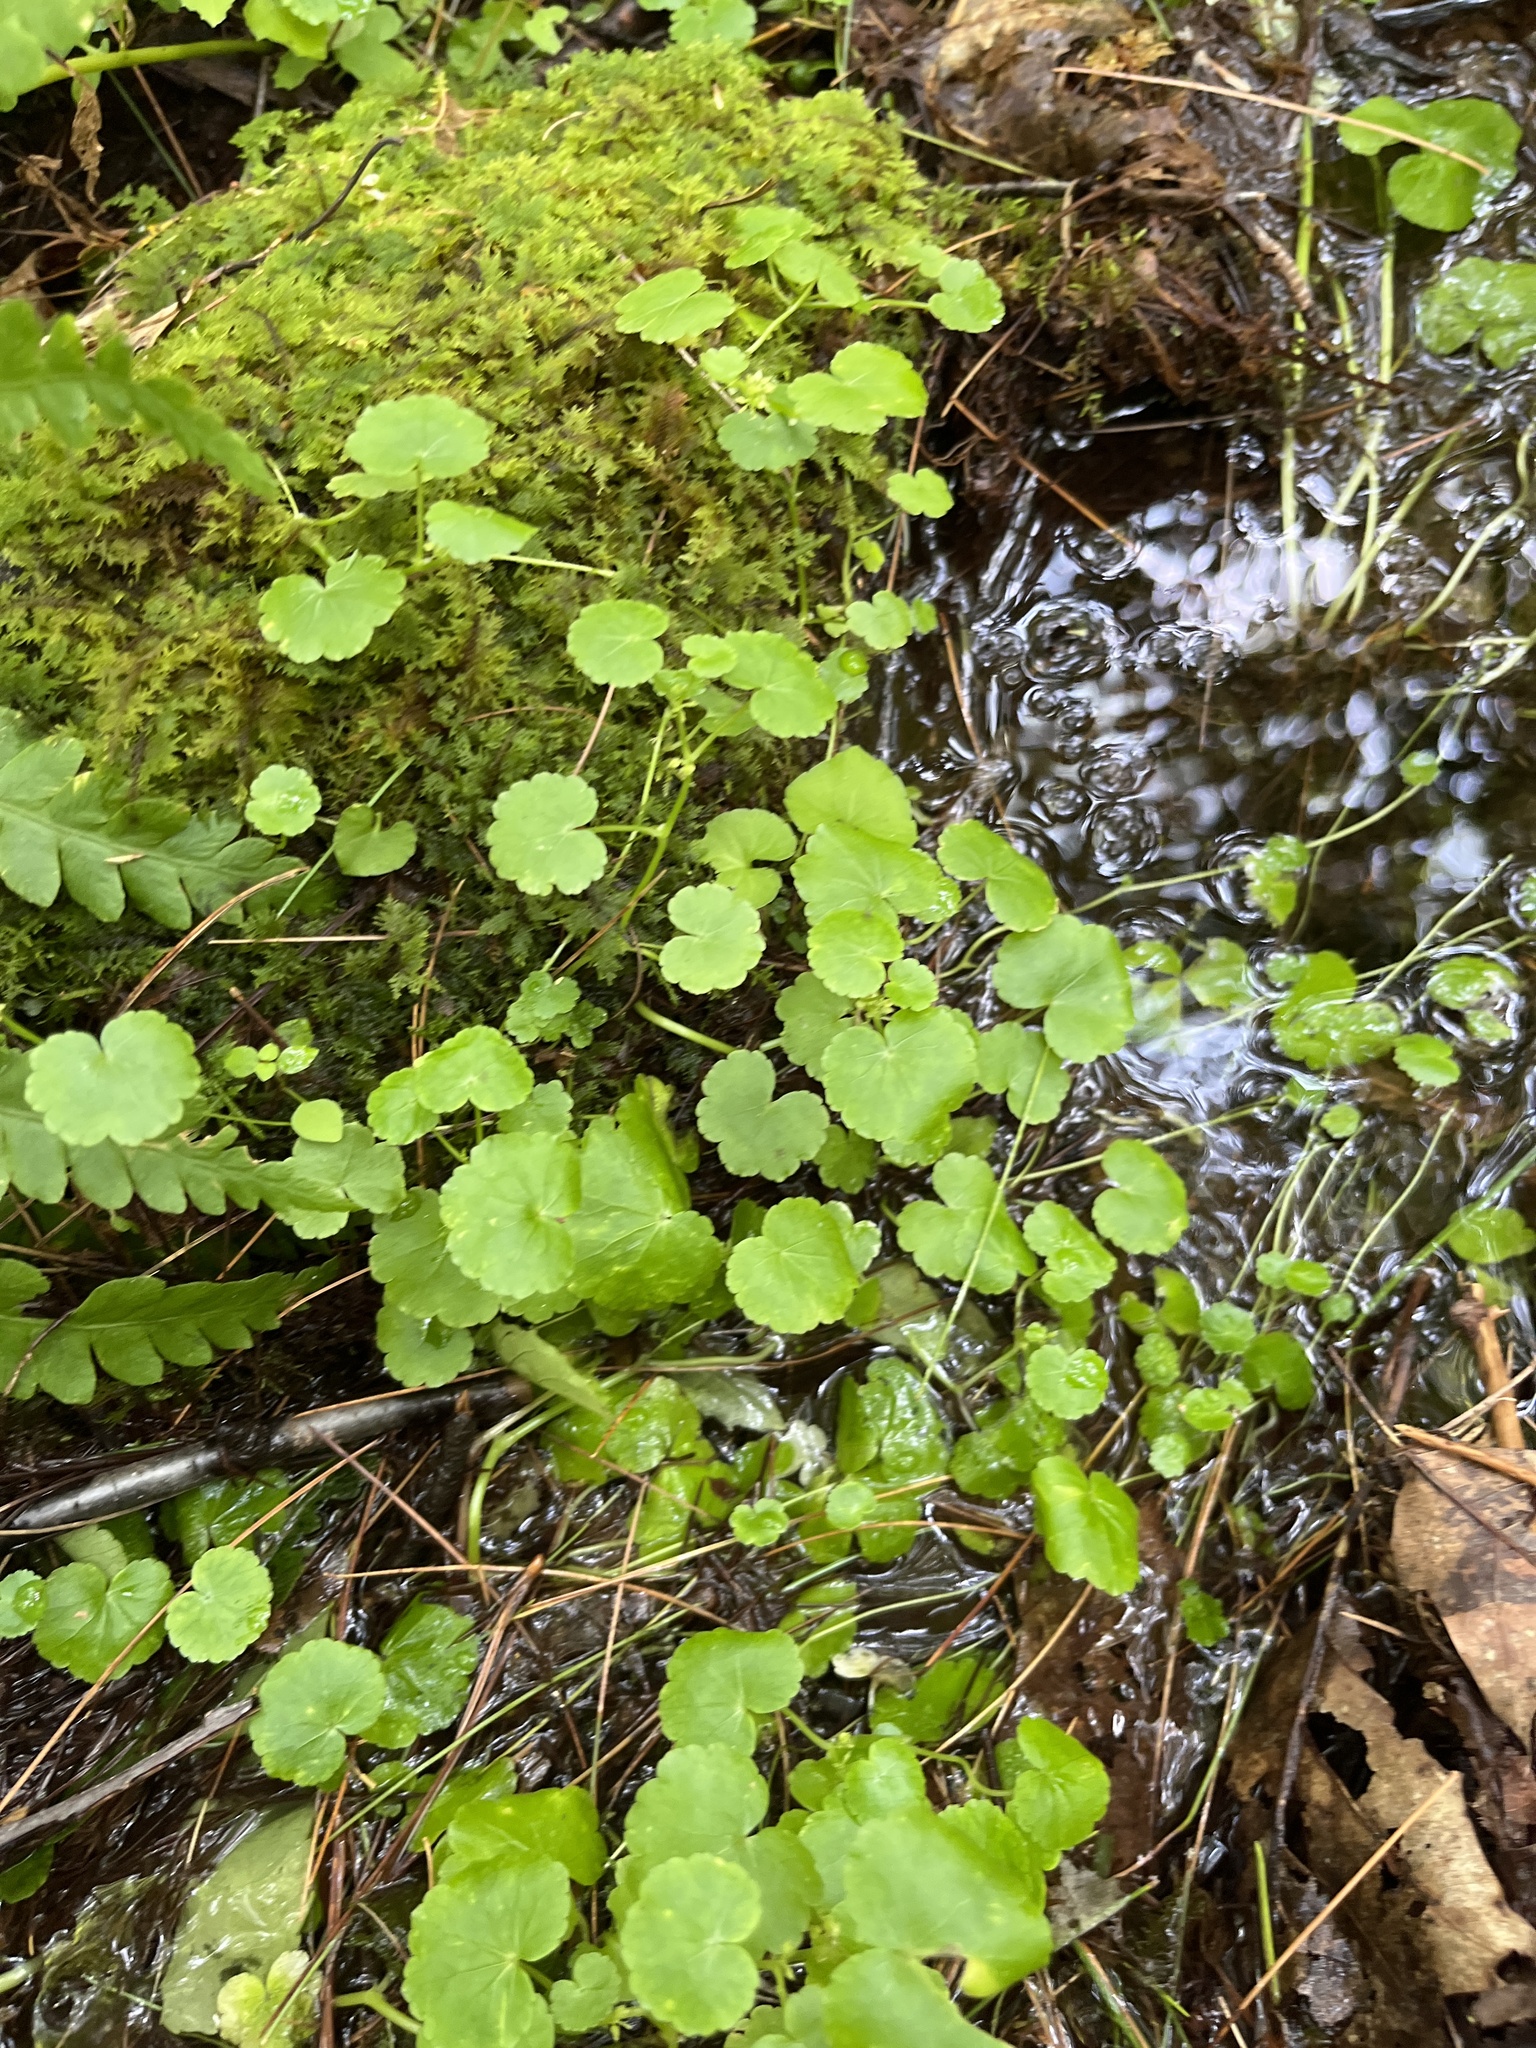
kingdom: Plantae
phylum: Tracheophyta
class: Magnoliopsida
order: Apiales
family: Araliaceae
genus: Hydrocotyle
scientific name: Hydrocotyle americana
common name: American water-pennywort
